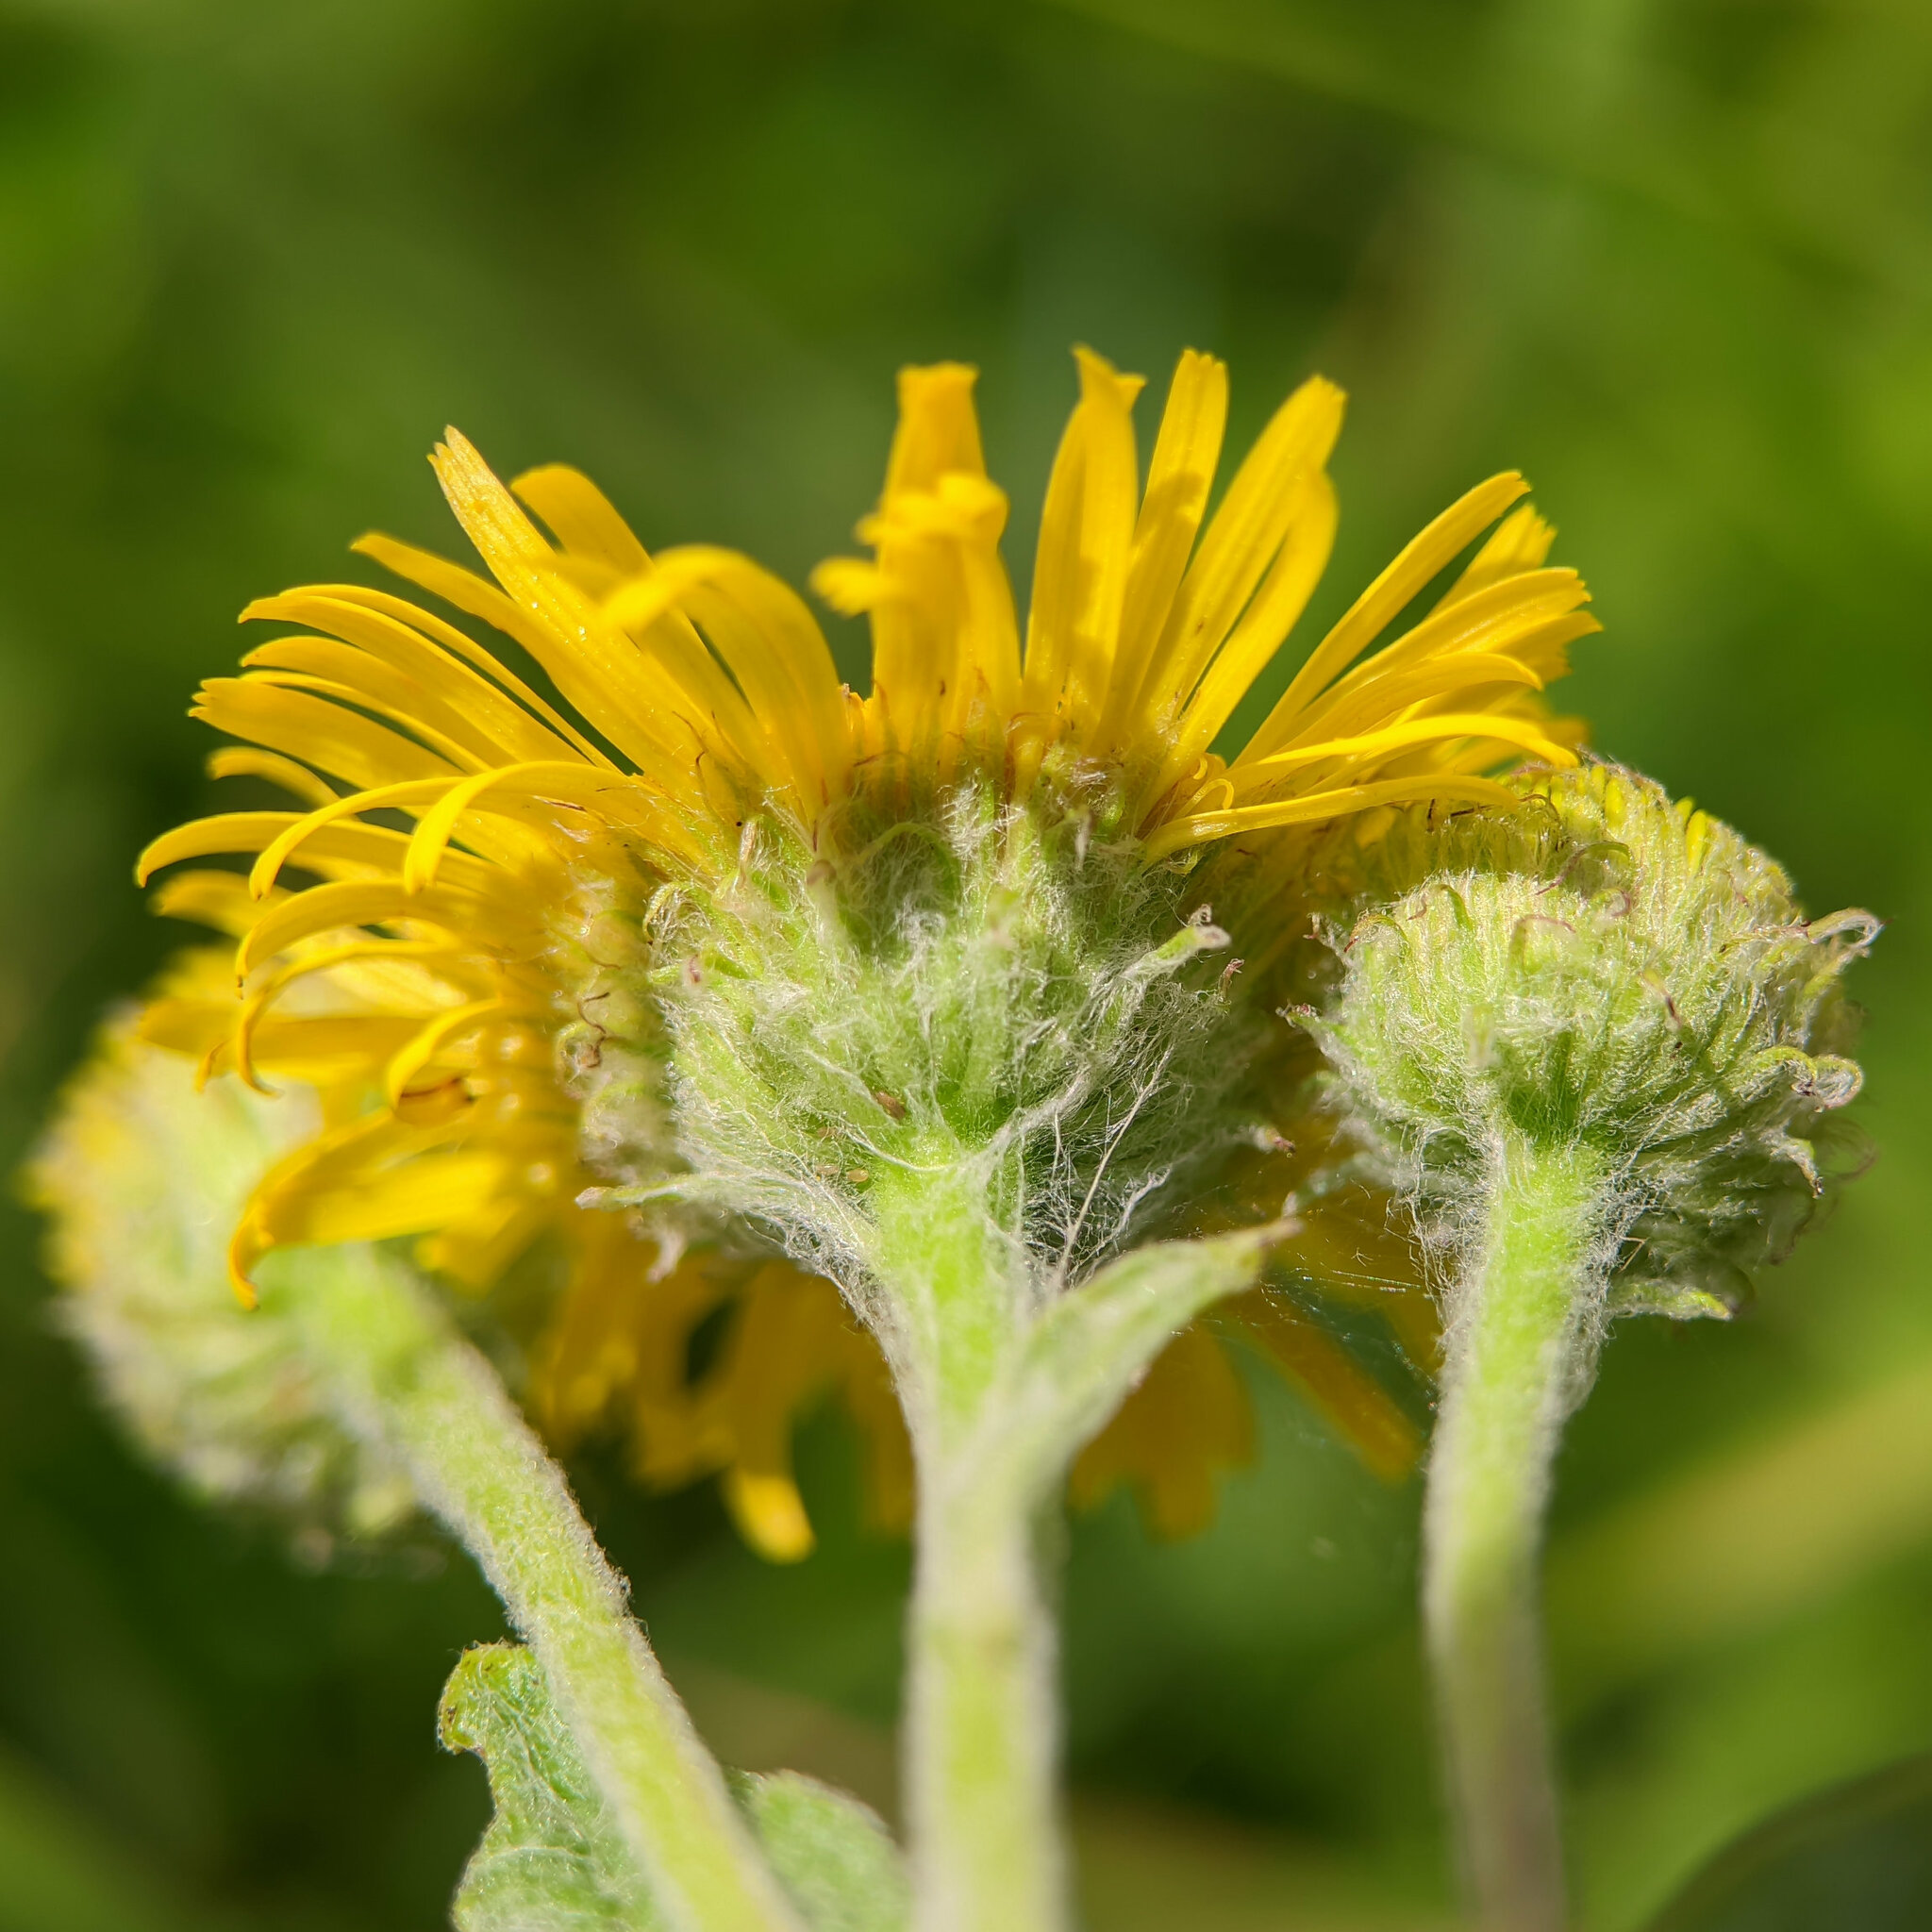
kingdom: Plantae
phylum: Tracheophyta
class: Magnoliopsida
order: Asterales
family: Asteraceae
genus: Pulicaria
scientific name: Pulicaria dysenterica
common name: Common fleabane
